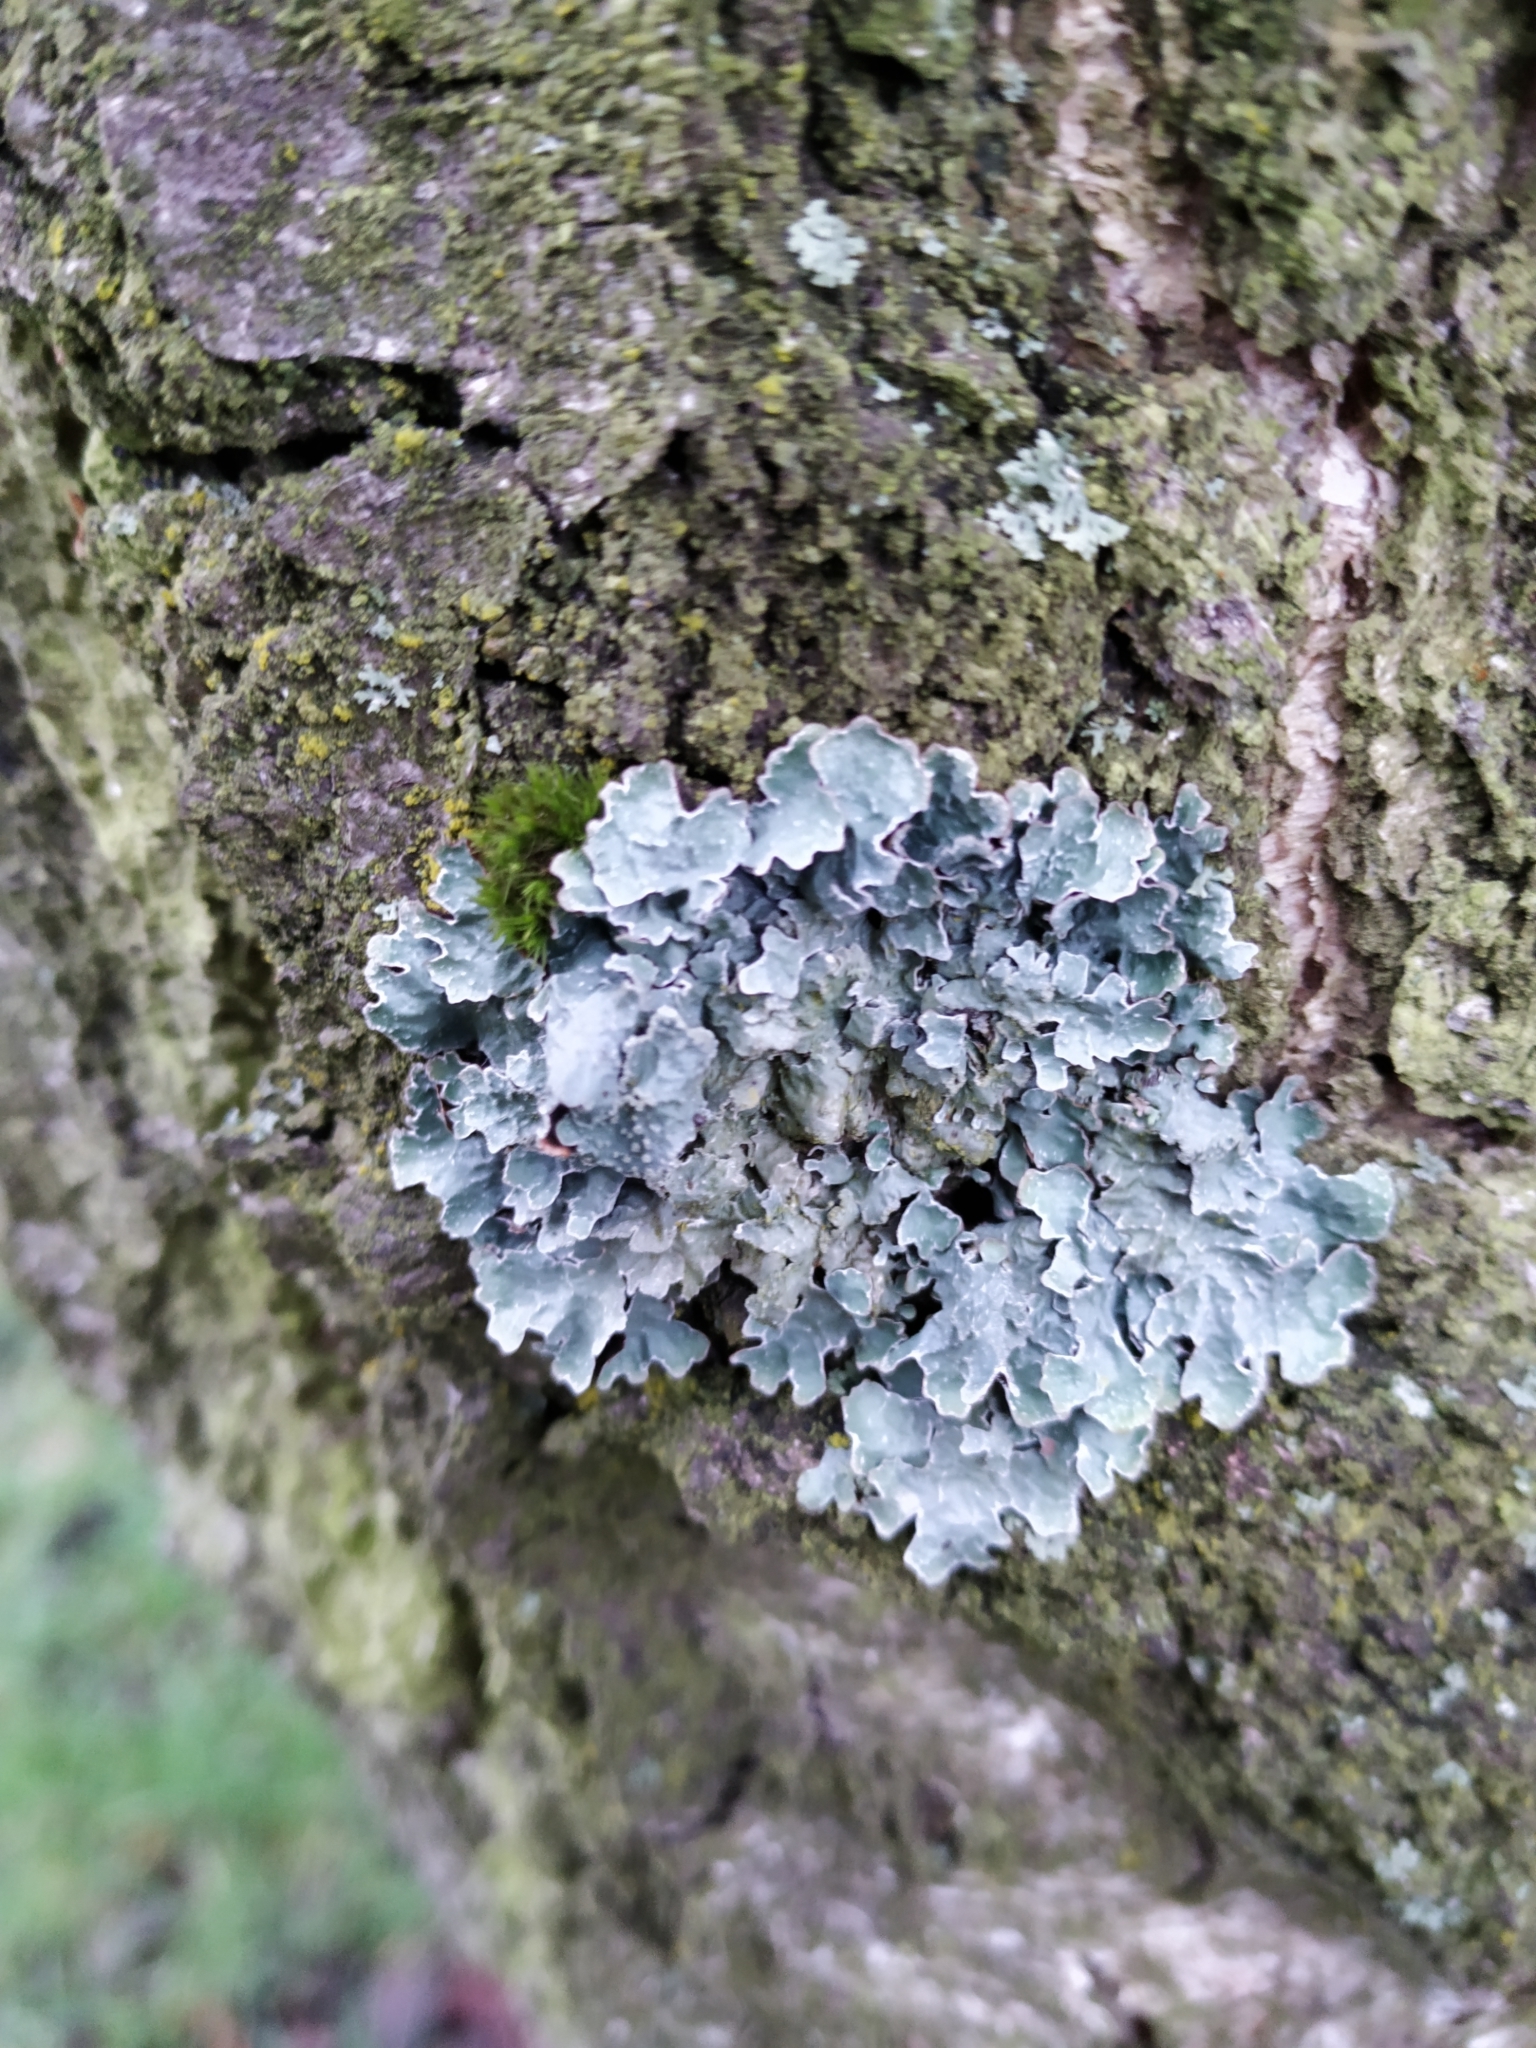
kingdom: Fungi
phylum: Ascomycota
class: Lecanoromycetes
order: Lecanorales
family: Parmeliaceae
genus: Parmelia
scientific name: Parmelia sulcata
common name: Netted shield lichen
